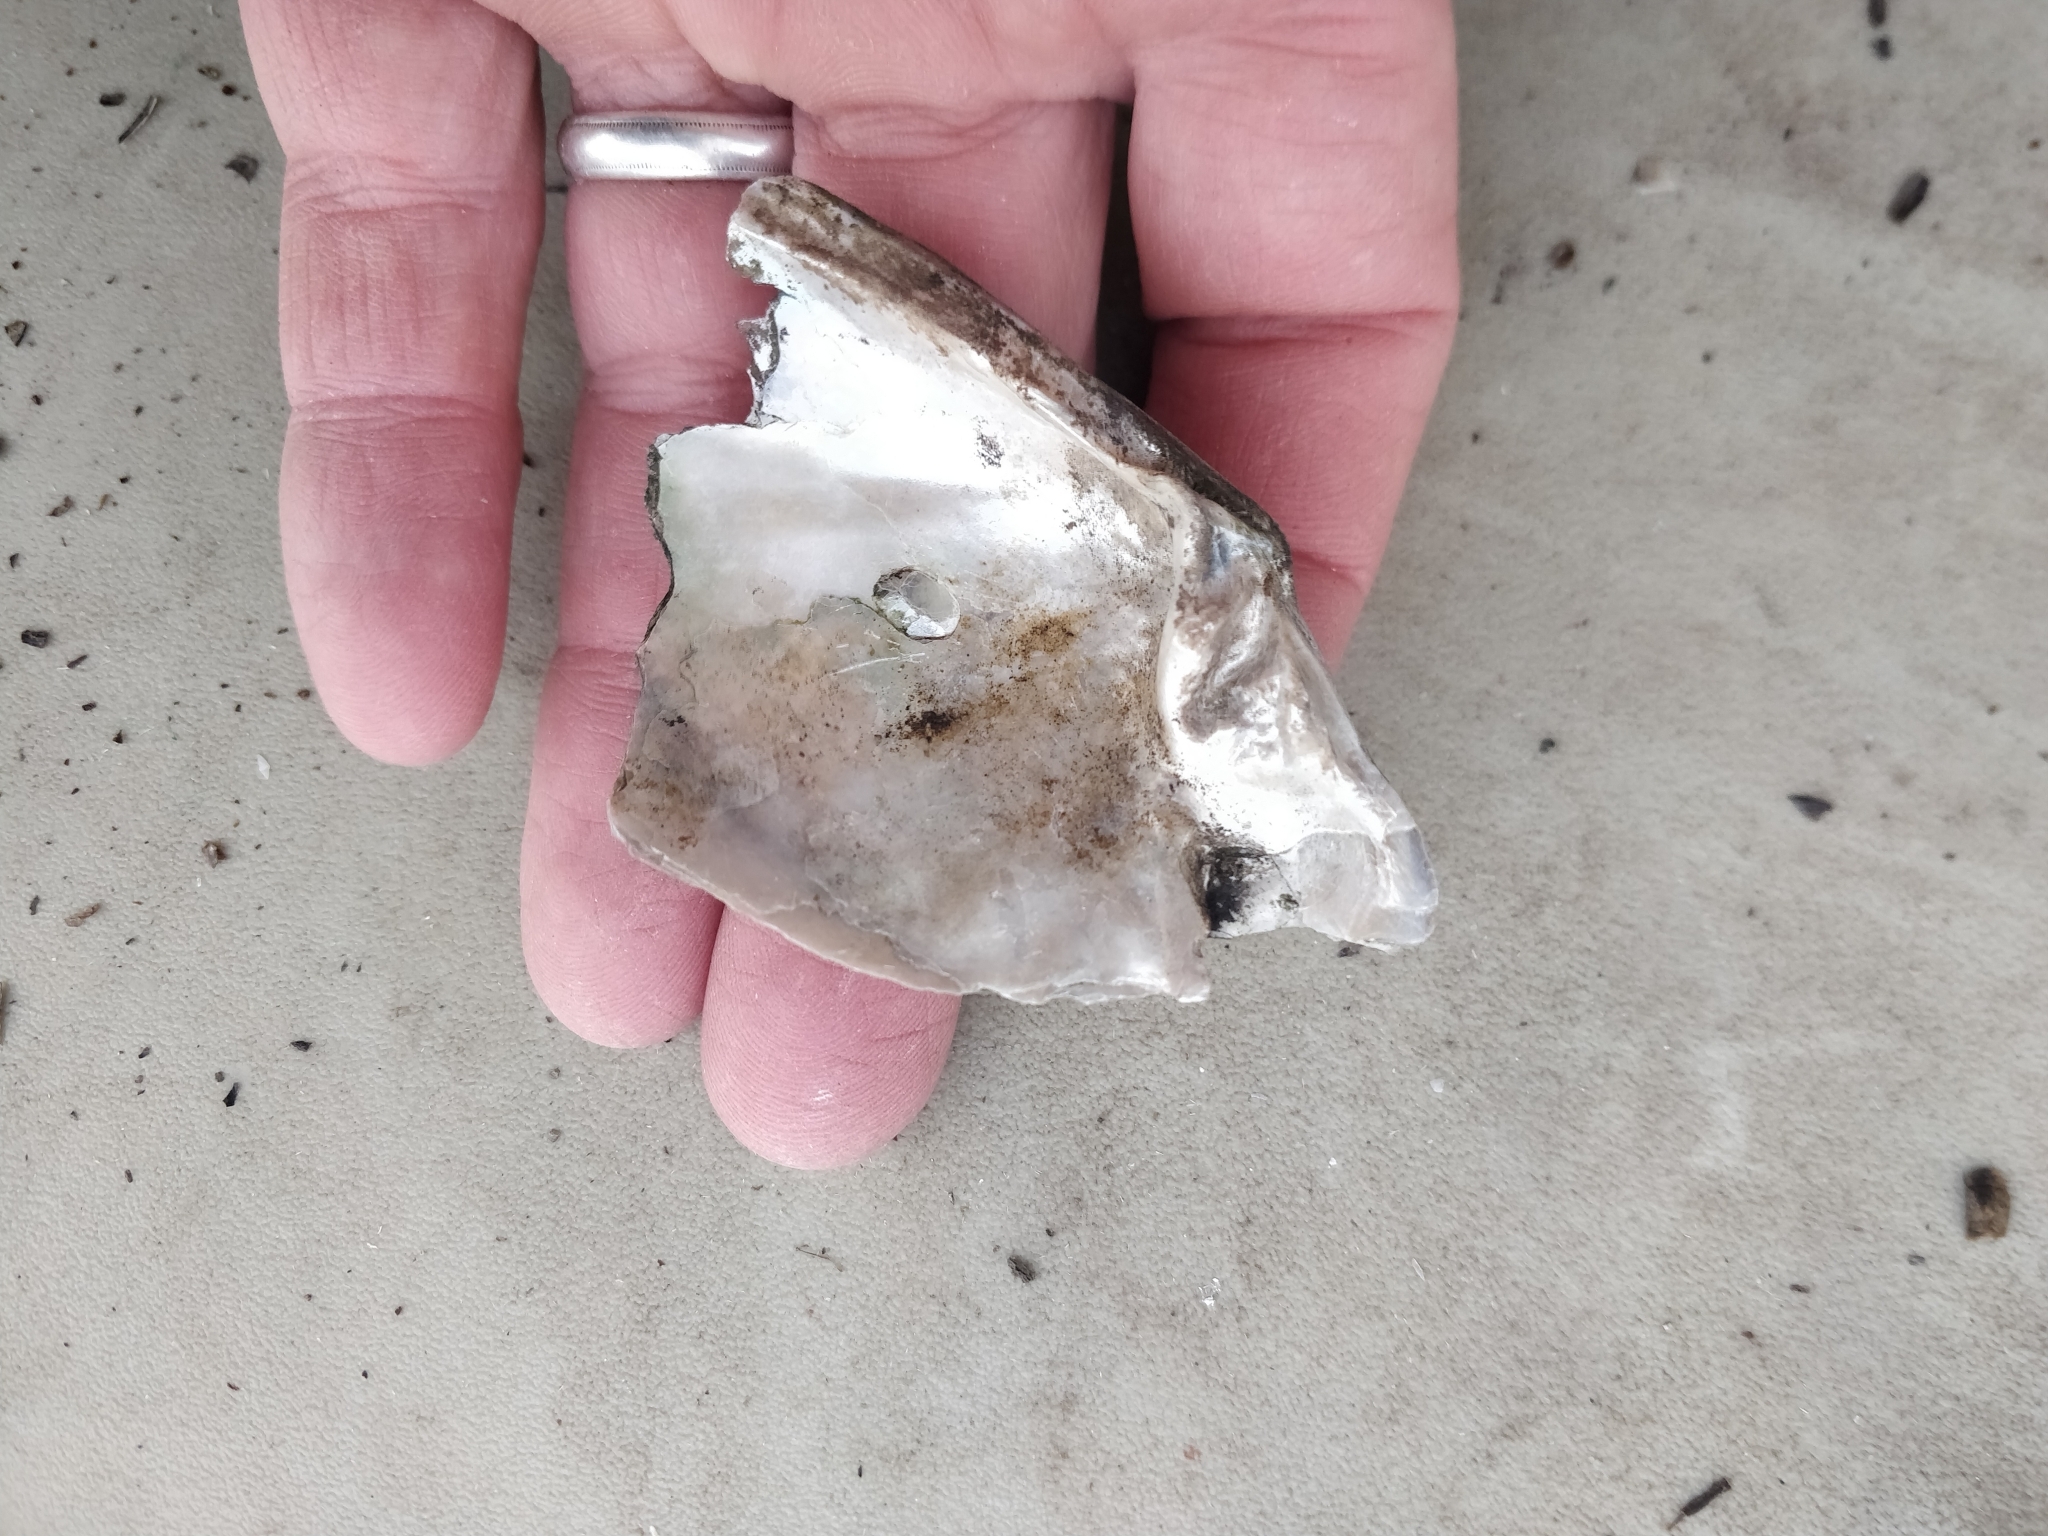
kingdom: Animalia
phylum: Mollusca
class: Bivalvia
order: Unionida
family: Unionidae
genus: Lasmigona
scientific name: Lasmigona complanata
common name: White heelsplitter
